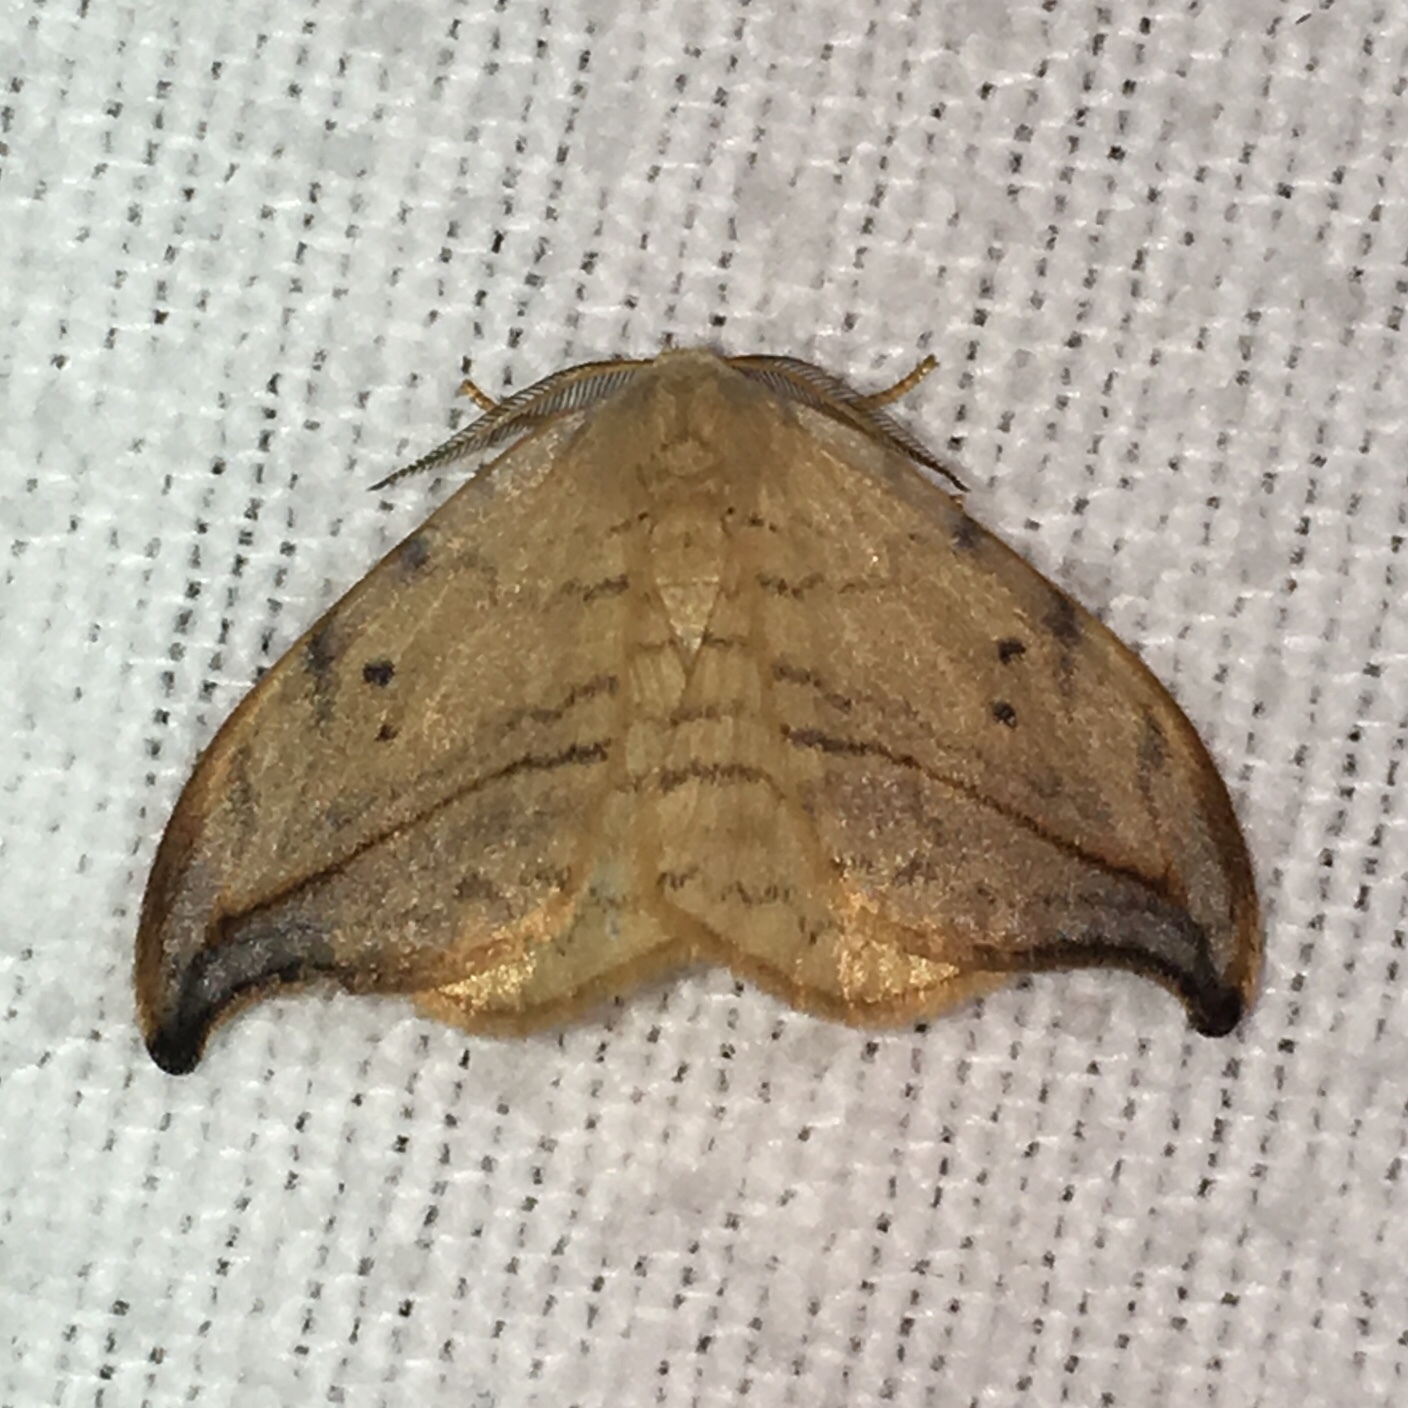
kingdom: Animalia
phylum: Arthropoda
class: Insecta
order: Lepidoptera
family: Drepanidae
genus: Drepana
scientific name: Drepana arcuata
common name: Arched hooktip moth
